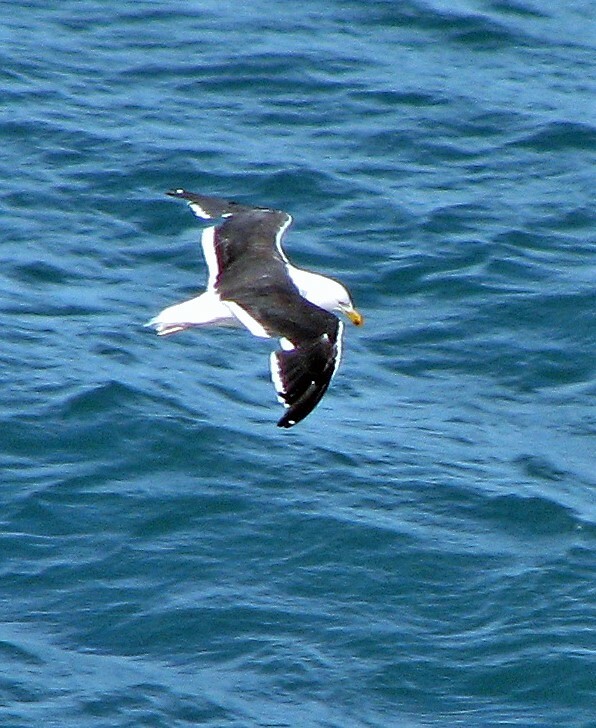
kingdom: Animalia
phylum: Chordata
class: Aves
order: Charadriiformes
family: Laridae
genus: Larus
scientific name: Larus dominicanus
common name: Kelp gull
